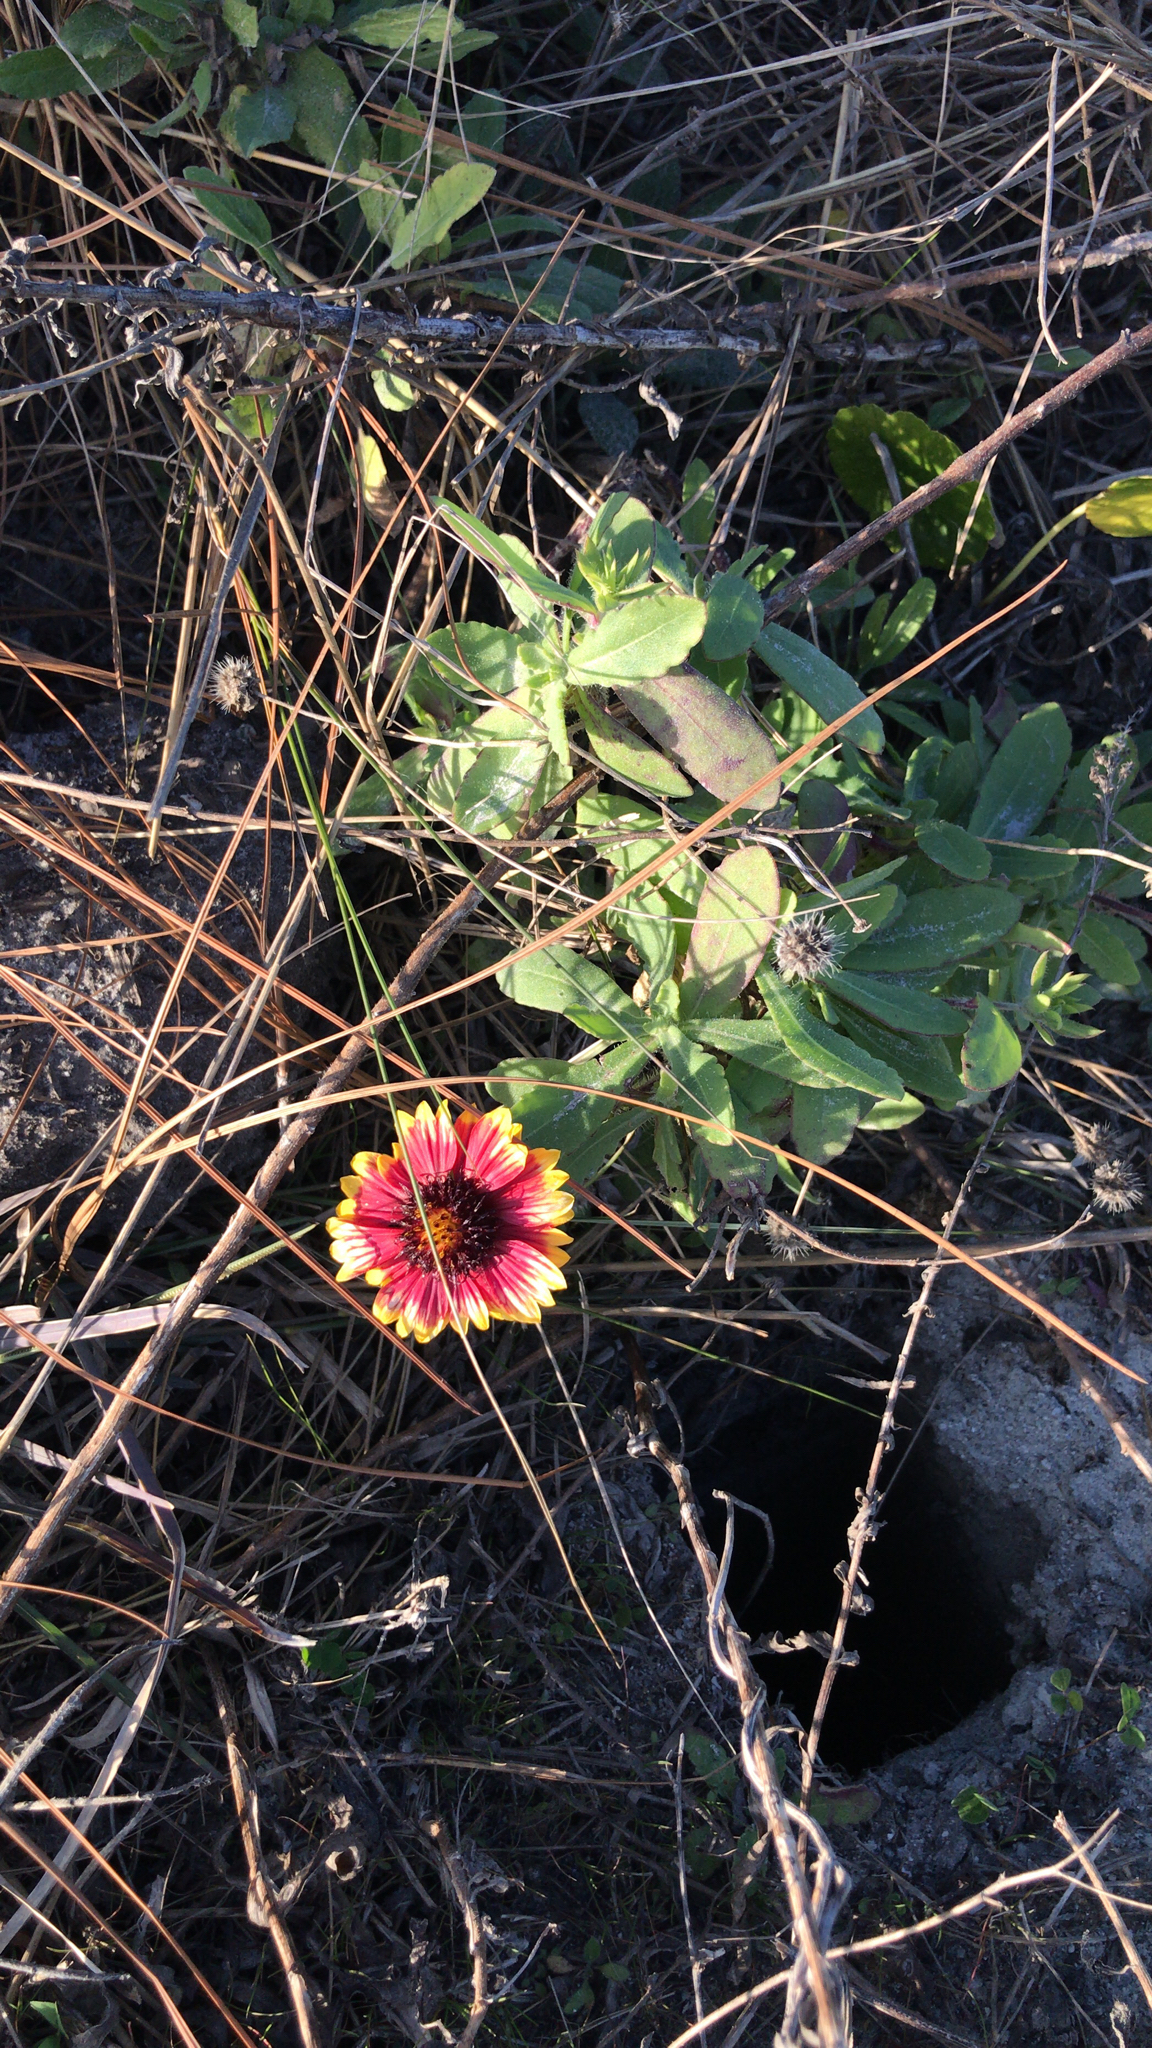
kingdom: Plantae
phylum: Tracheophyta
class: Magnoliopsida
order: Asterales
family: Asteraceae
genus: Gaillardia
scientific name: Gaillardia pulchella
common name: Firewheel
